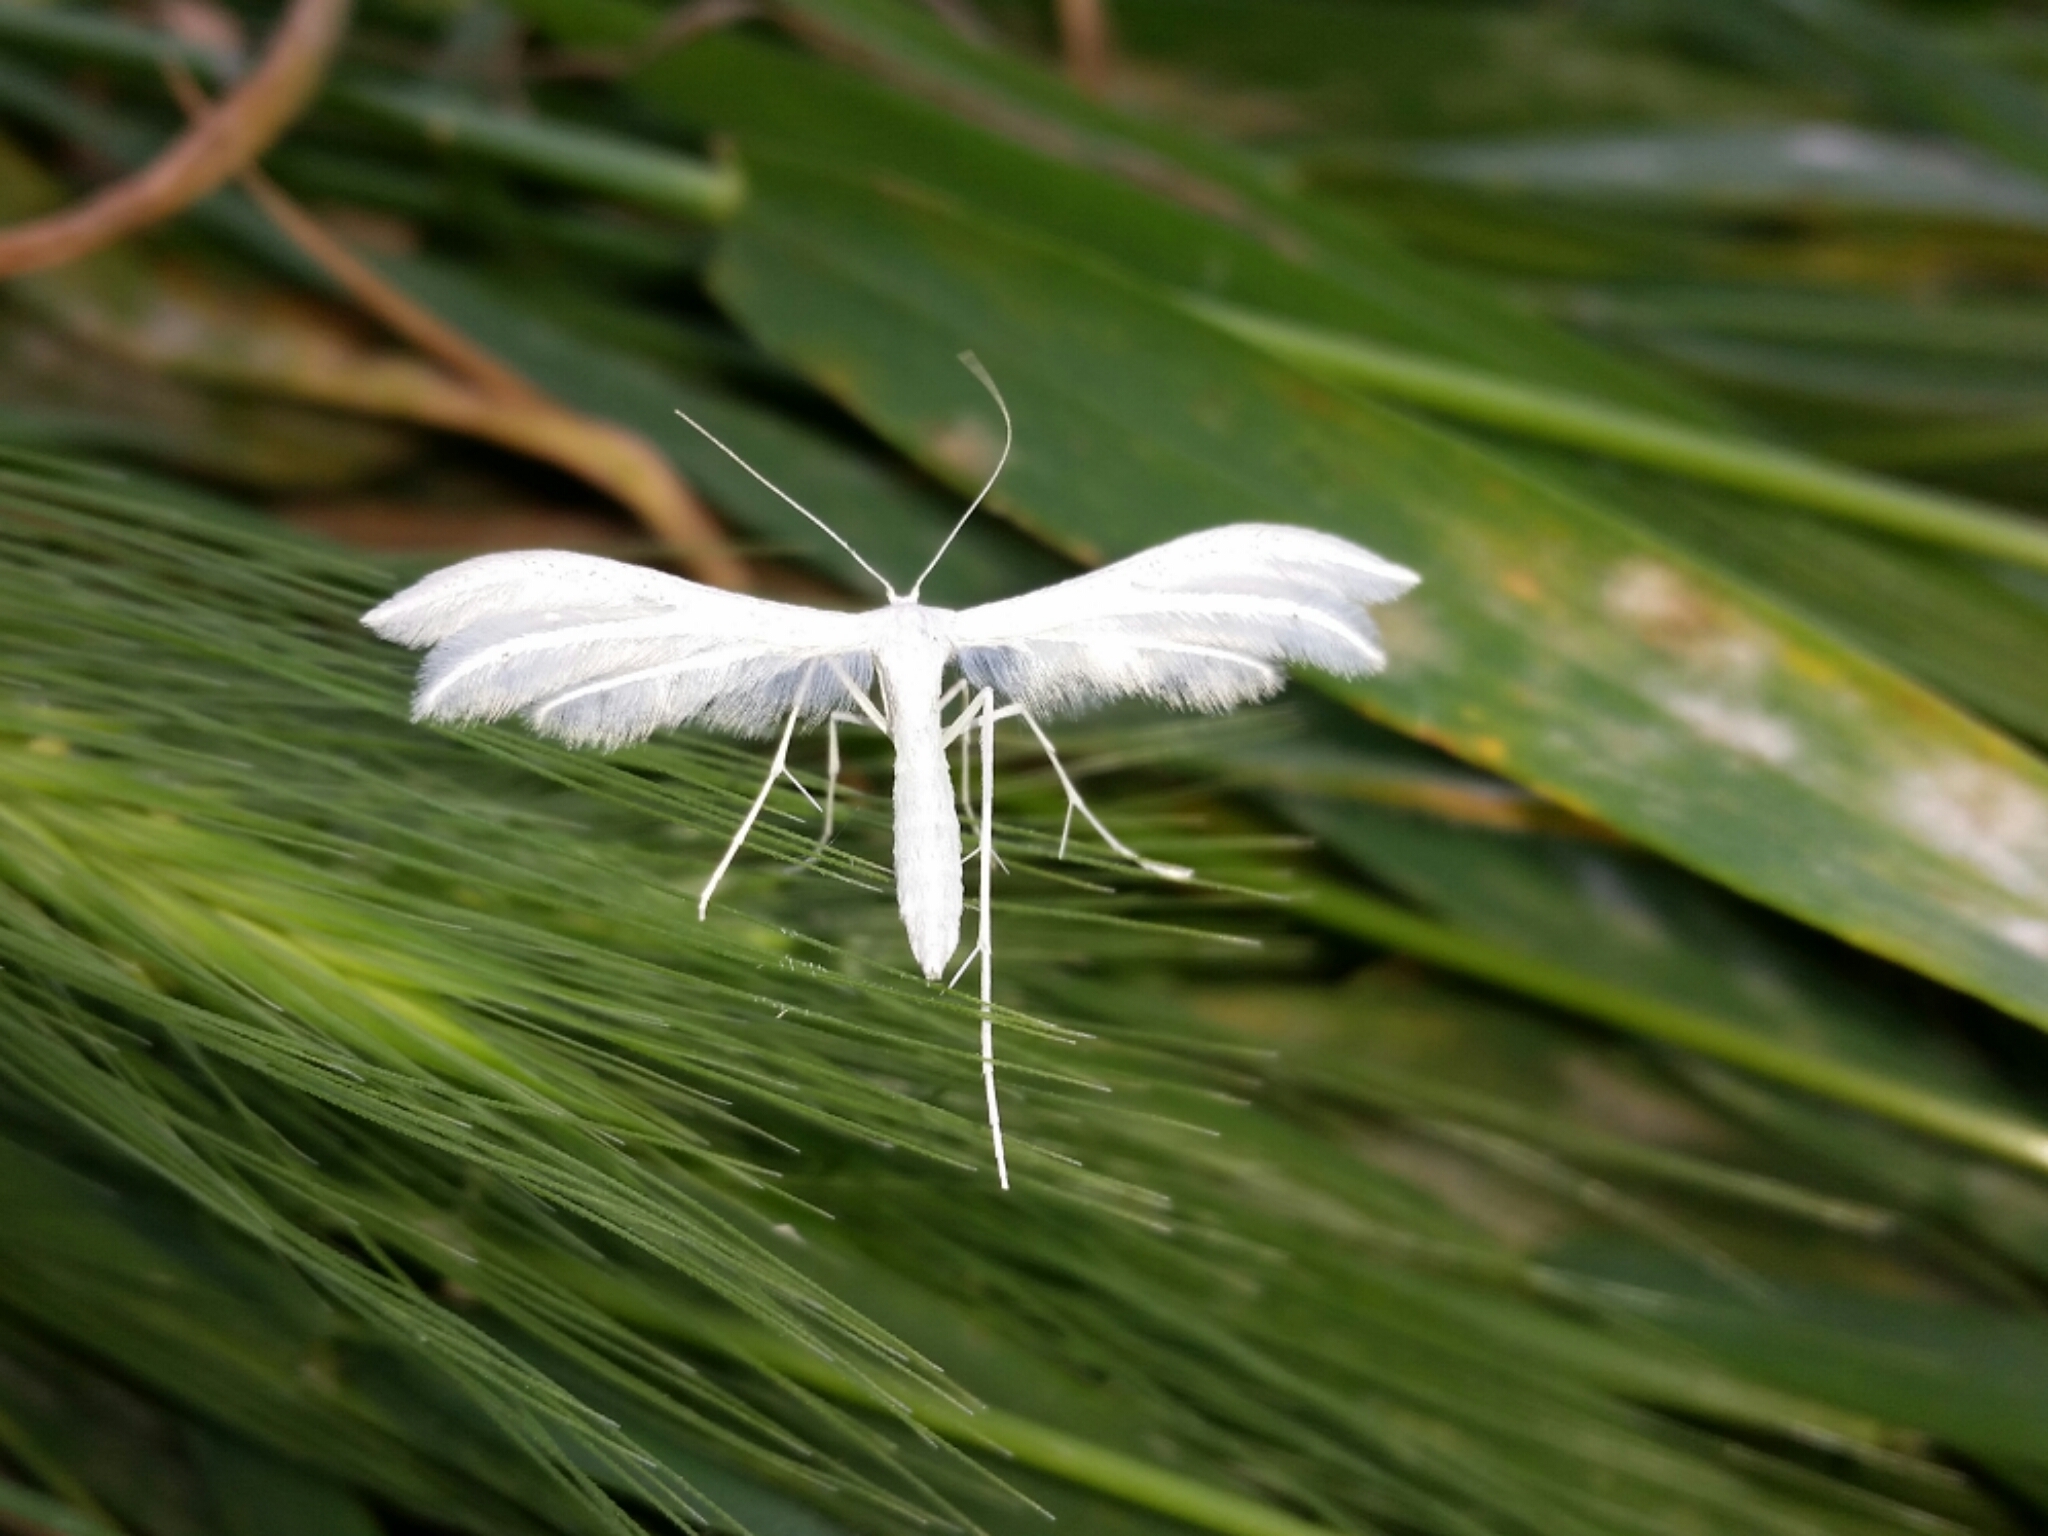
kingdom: Animalia
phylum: Arthropoda
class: Insecta
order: Lepidoptera
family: Pterophoridae
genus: Pterophorus
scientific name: Pterophorus pentadactyla
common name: White plume moth
